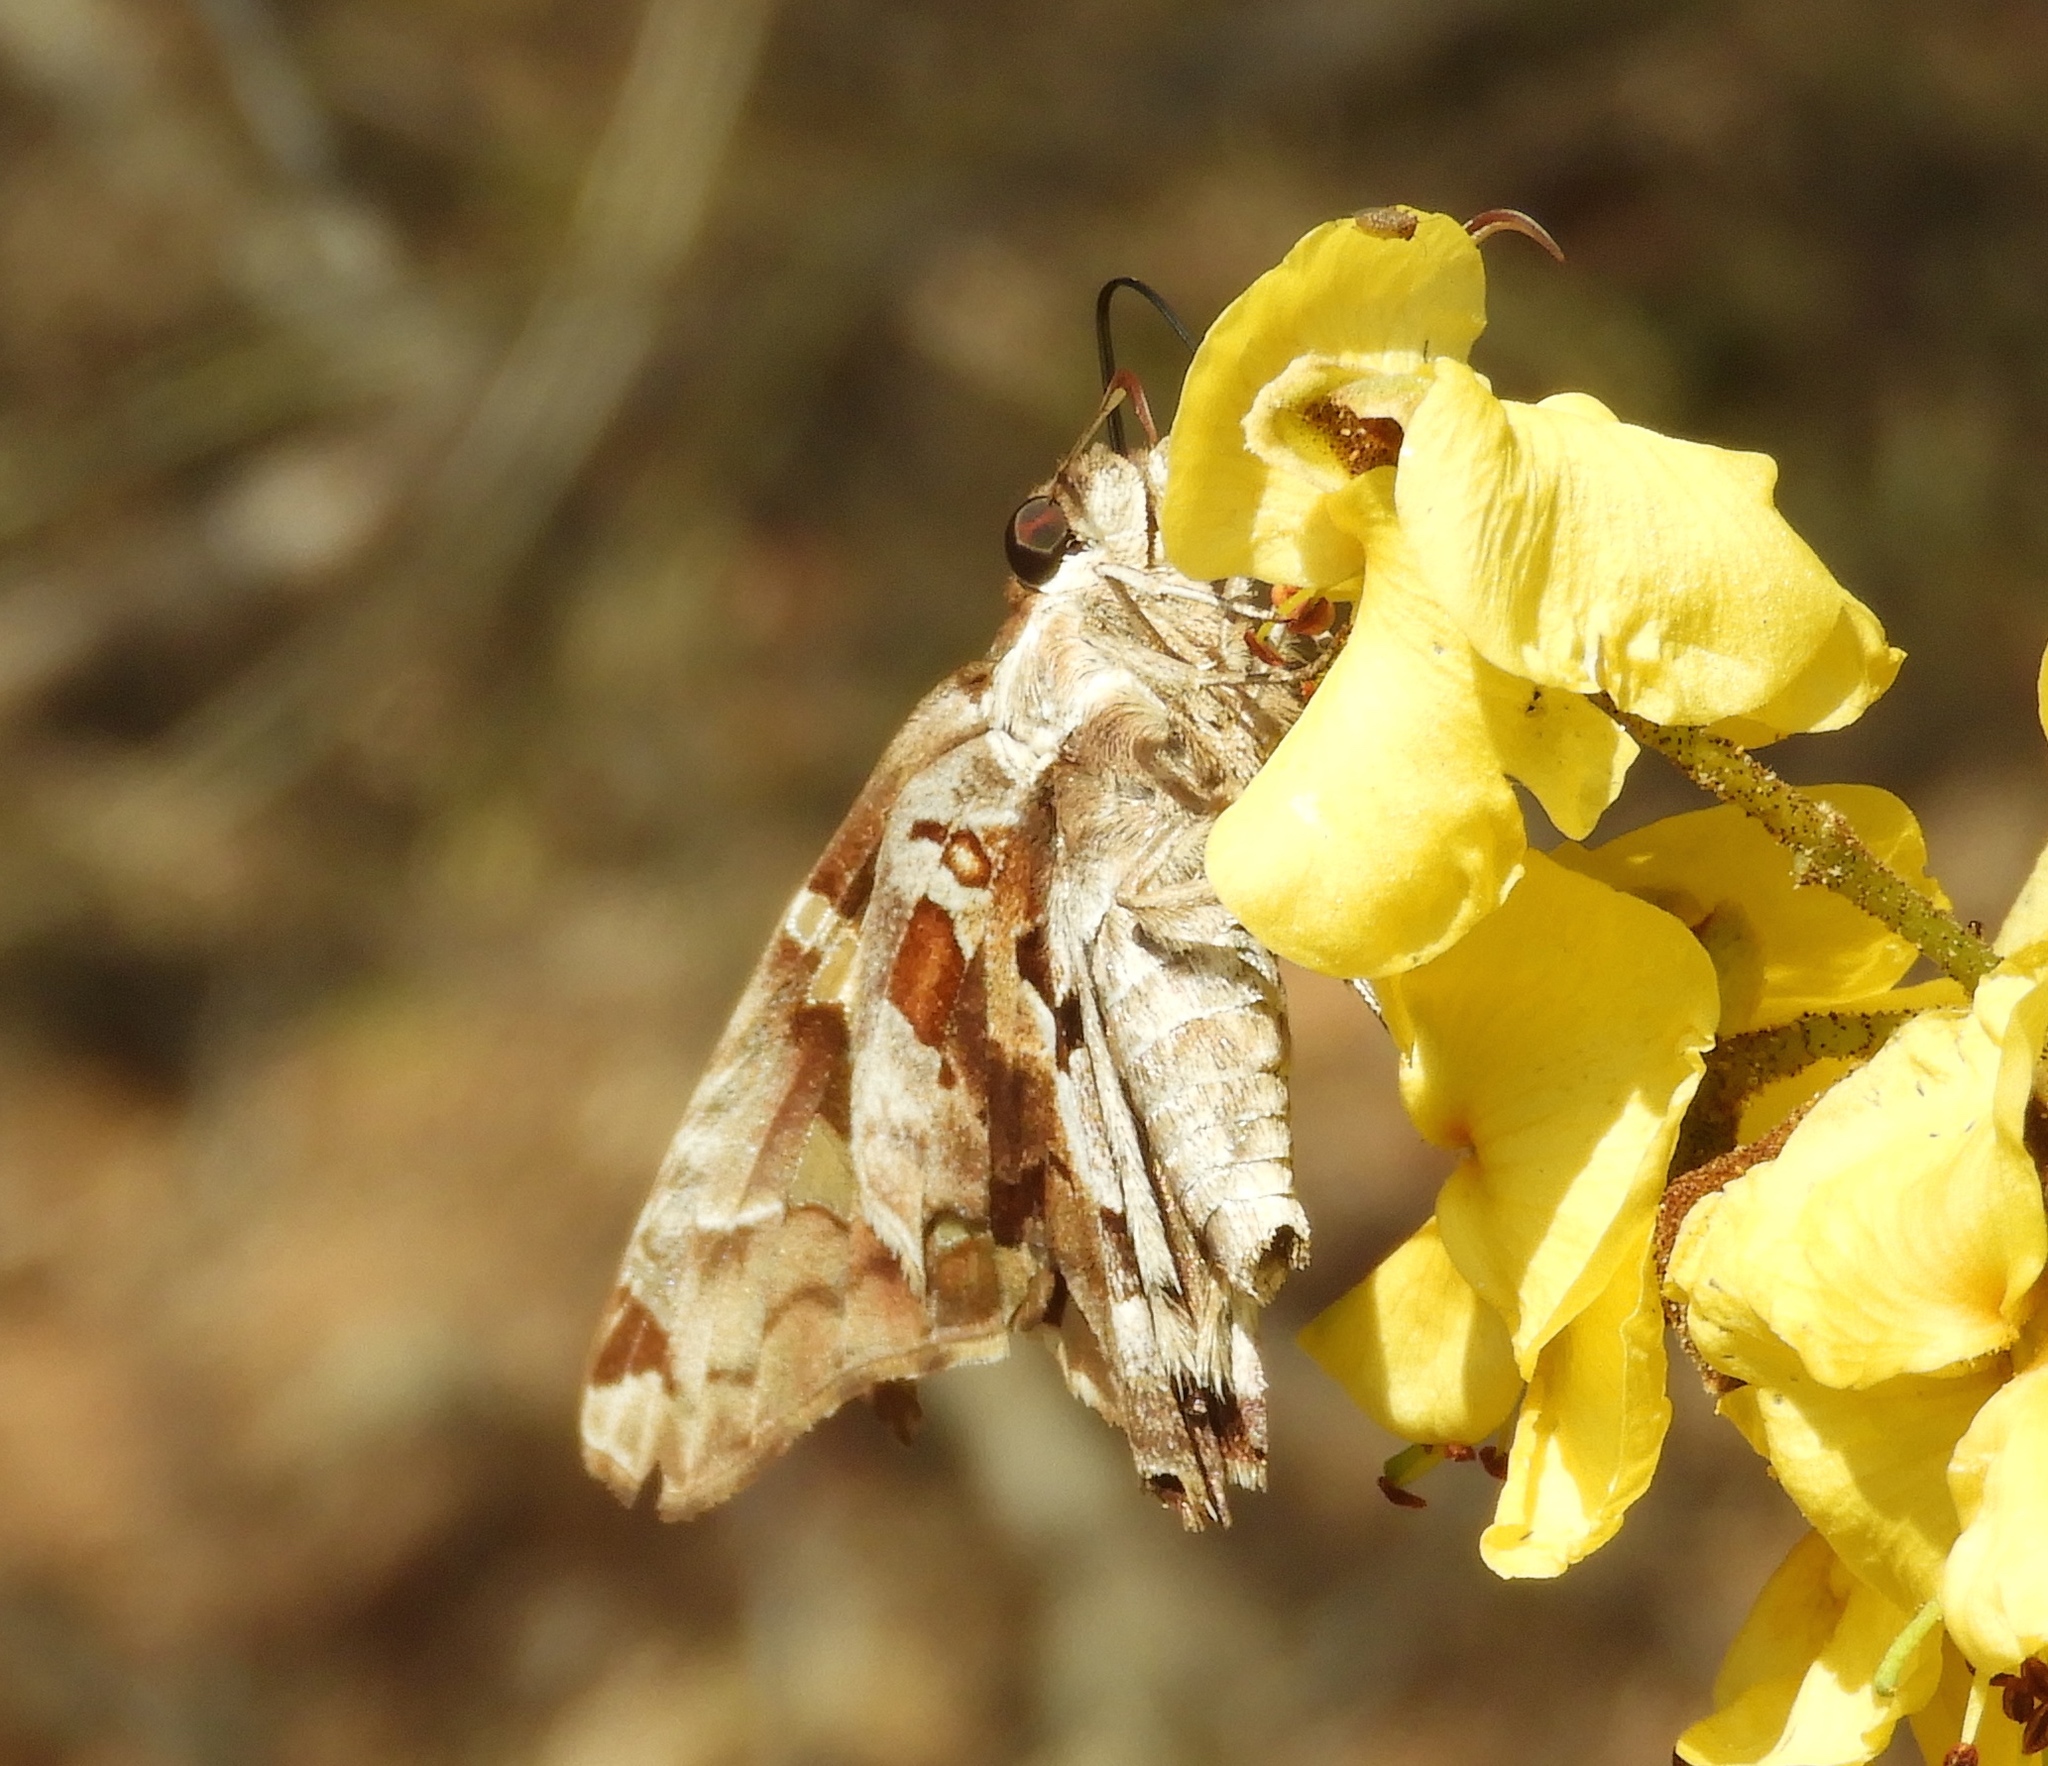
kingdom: Animalia
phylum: Arthropoda
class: Insecta
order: Lepidoptera
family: Hesperiidae
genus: Chioides
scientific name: Chioides zilpa
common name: Zilpa longtail
